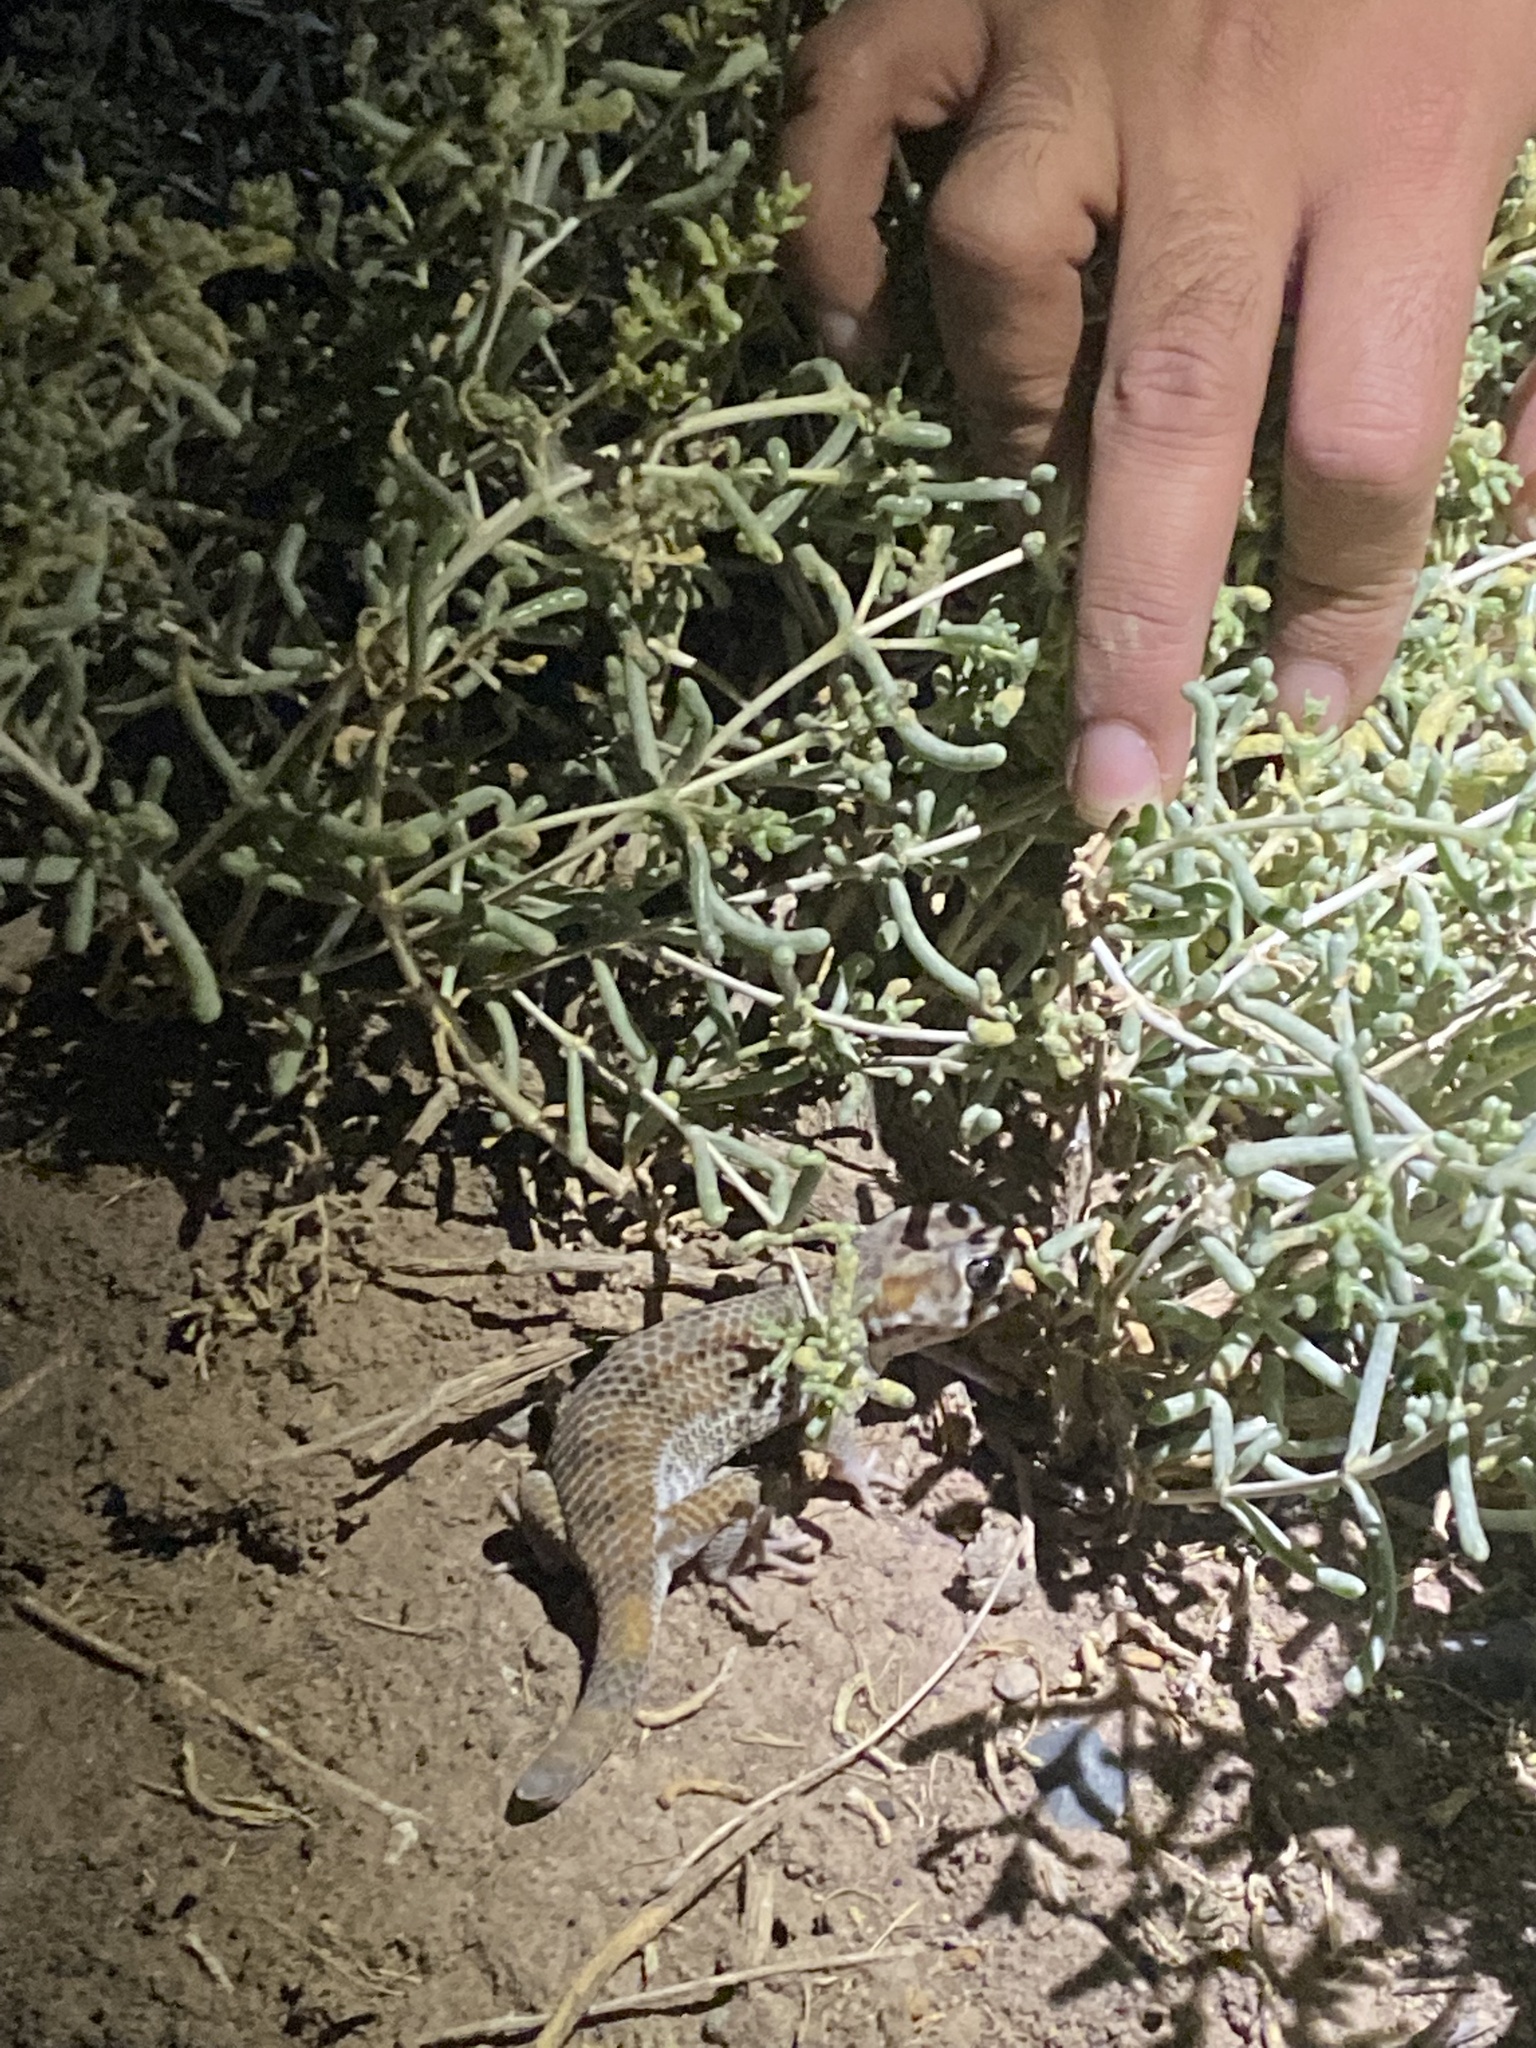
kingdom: Animalia
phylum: Chordata
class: Squamata
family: Sphaerodactylidae
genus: Teratoscincus
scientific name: Teratoscincus keyserlingii
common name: Frog-eyed gecko
